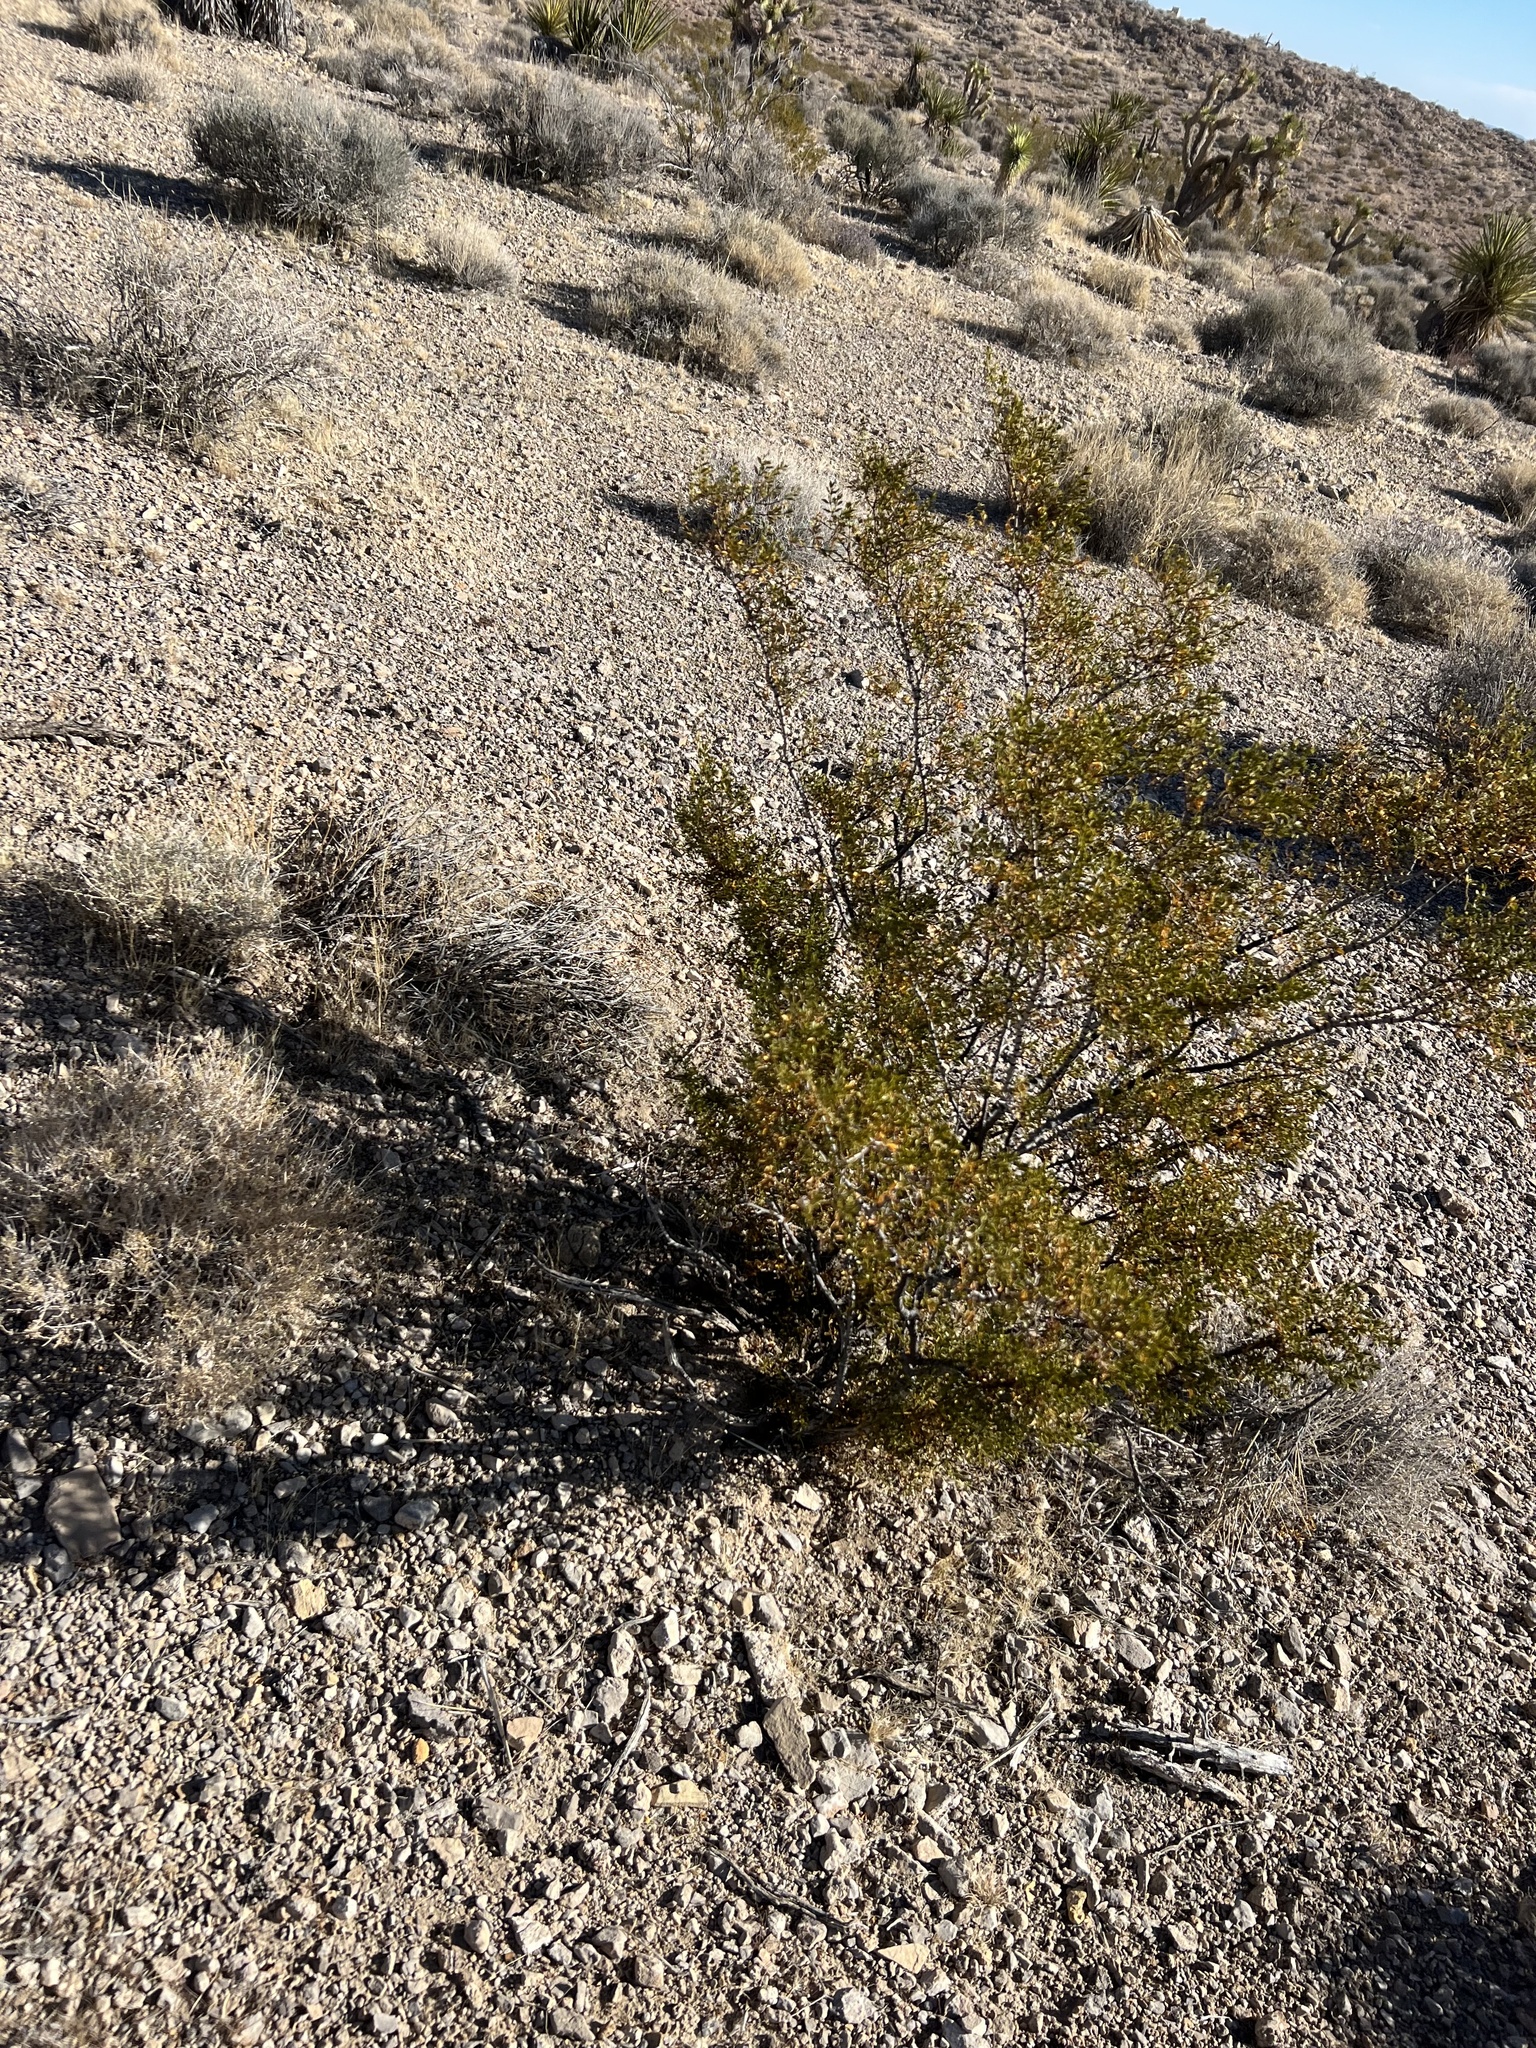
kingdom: Plantae
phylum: Tracheophyta
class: Magnoliopsida
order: Zygophyllales
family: Zygophyllaceae
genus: Larrea
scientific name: Larrea tridentata
